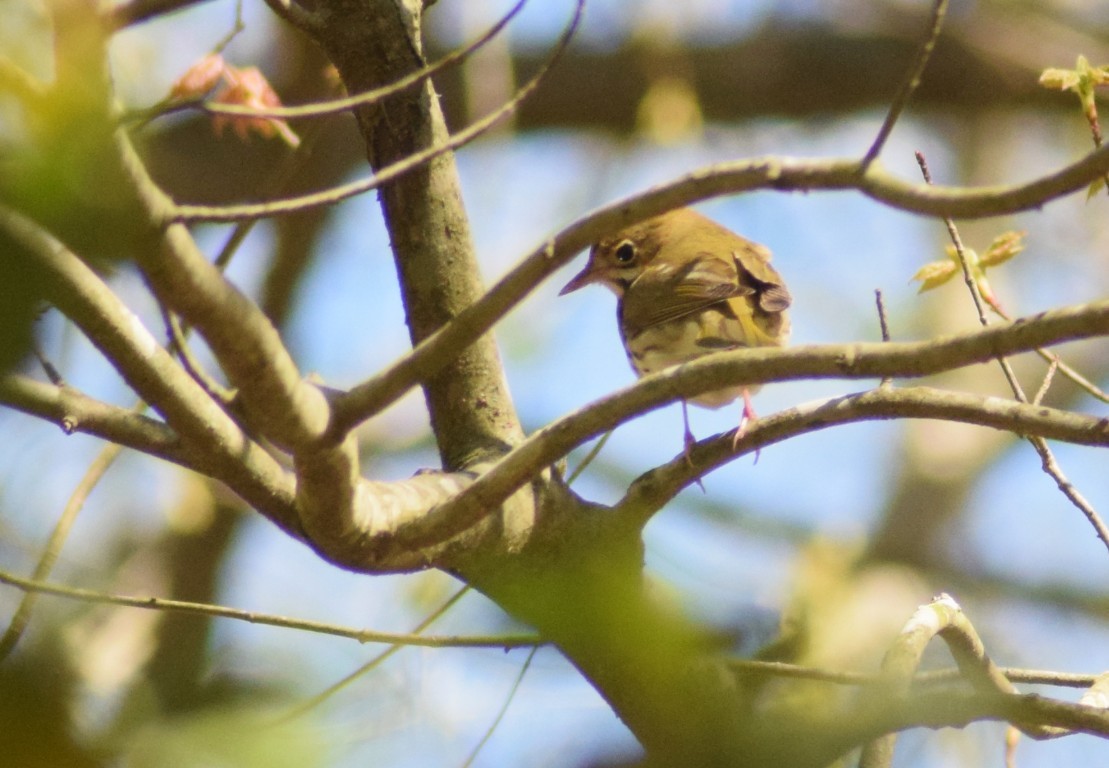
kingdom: Animalia
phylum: Chordata
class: Aves
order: Passeriformes
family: Parulidae
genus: Seiurus
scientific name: Seiurus aurocapilla
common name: Ovenbird
